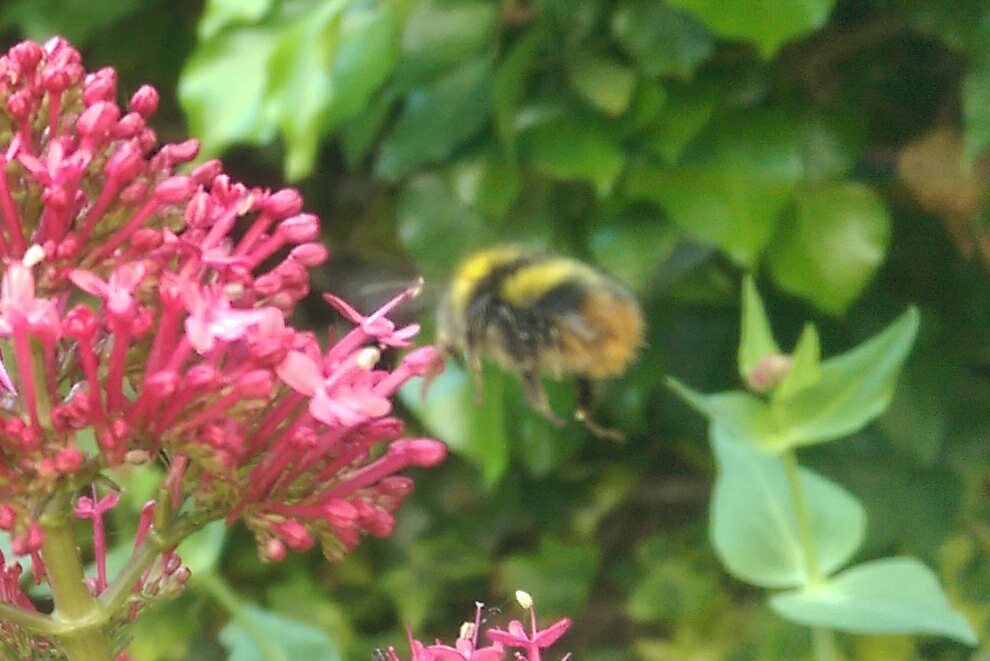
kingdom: Animalia
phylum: Arthropoda
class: Insecta
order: Hymenoptera
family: Apidae
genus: Bombus
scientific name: Bombus pratorum
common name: Early humble-bee
